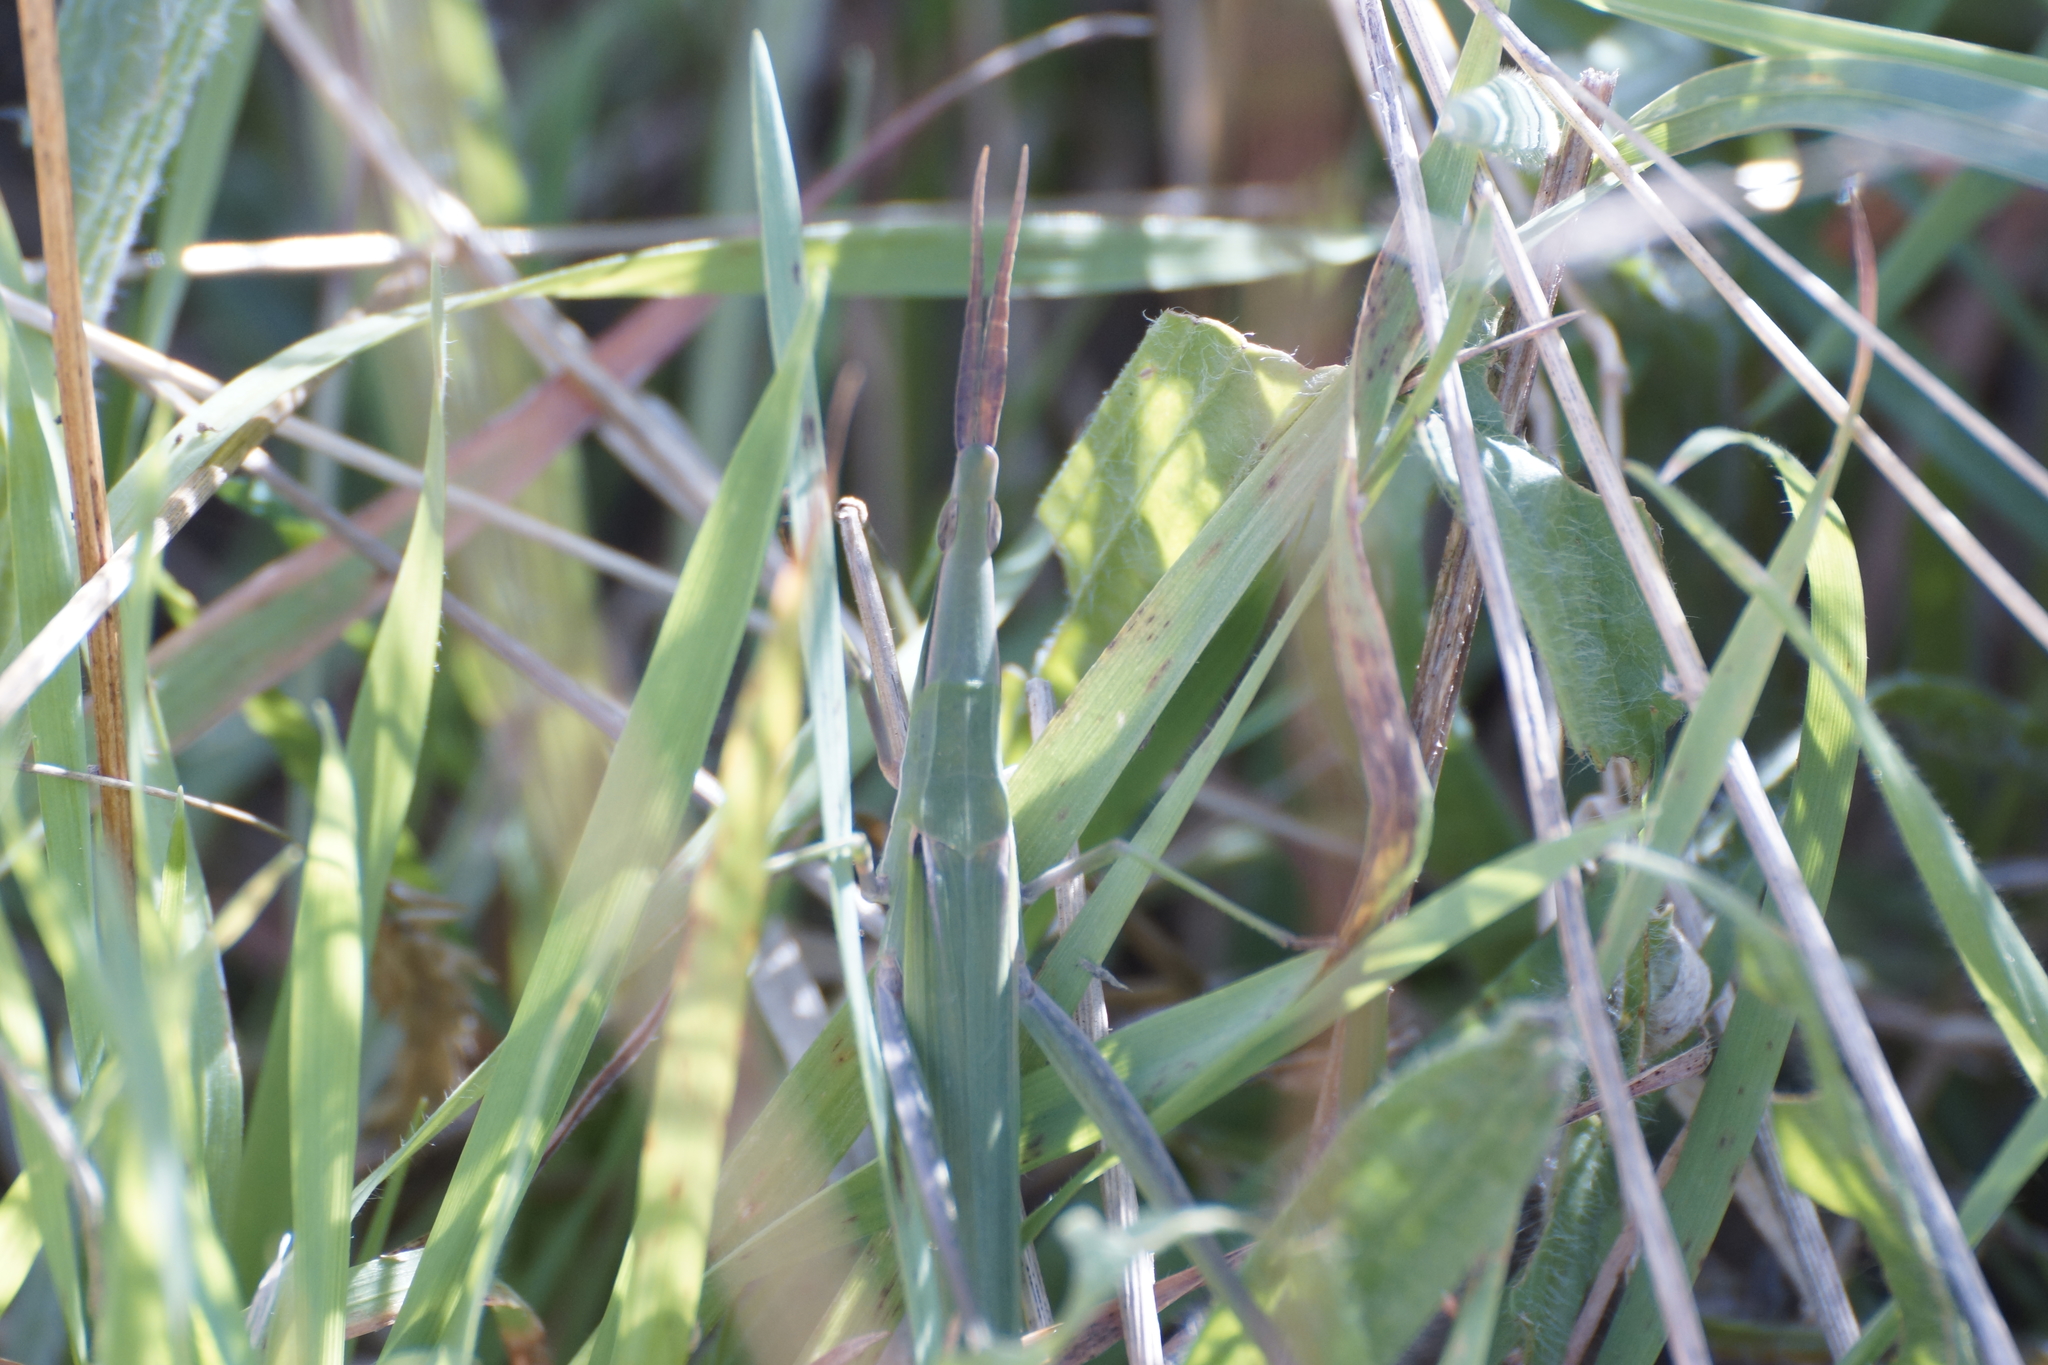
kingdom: Animalia
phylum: Arthropoda
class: Insecta
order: Orthoptera
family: Acrididae
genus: Acrida
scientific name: Acrida conica
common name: Giant green slantface
